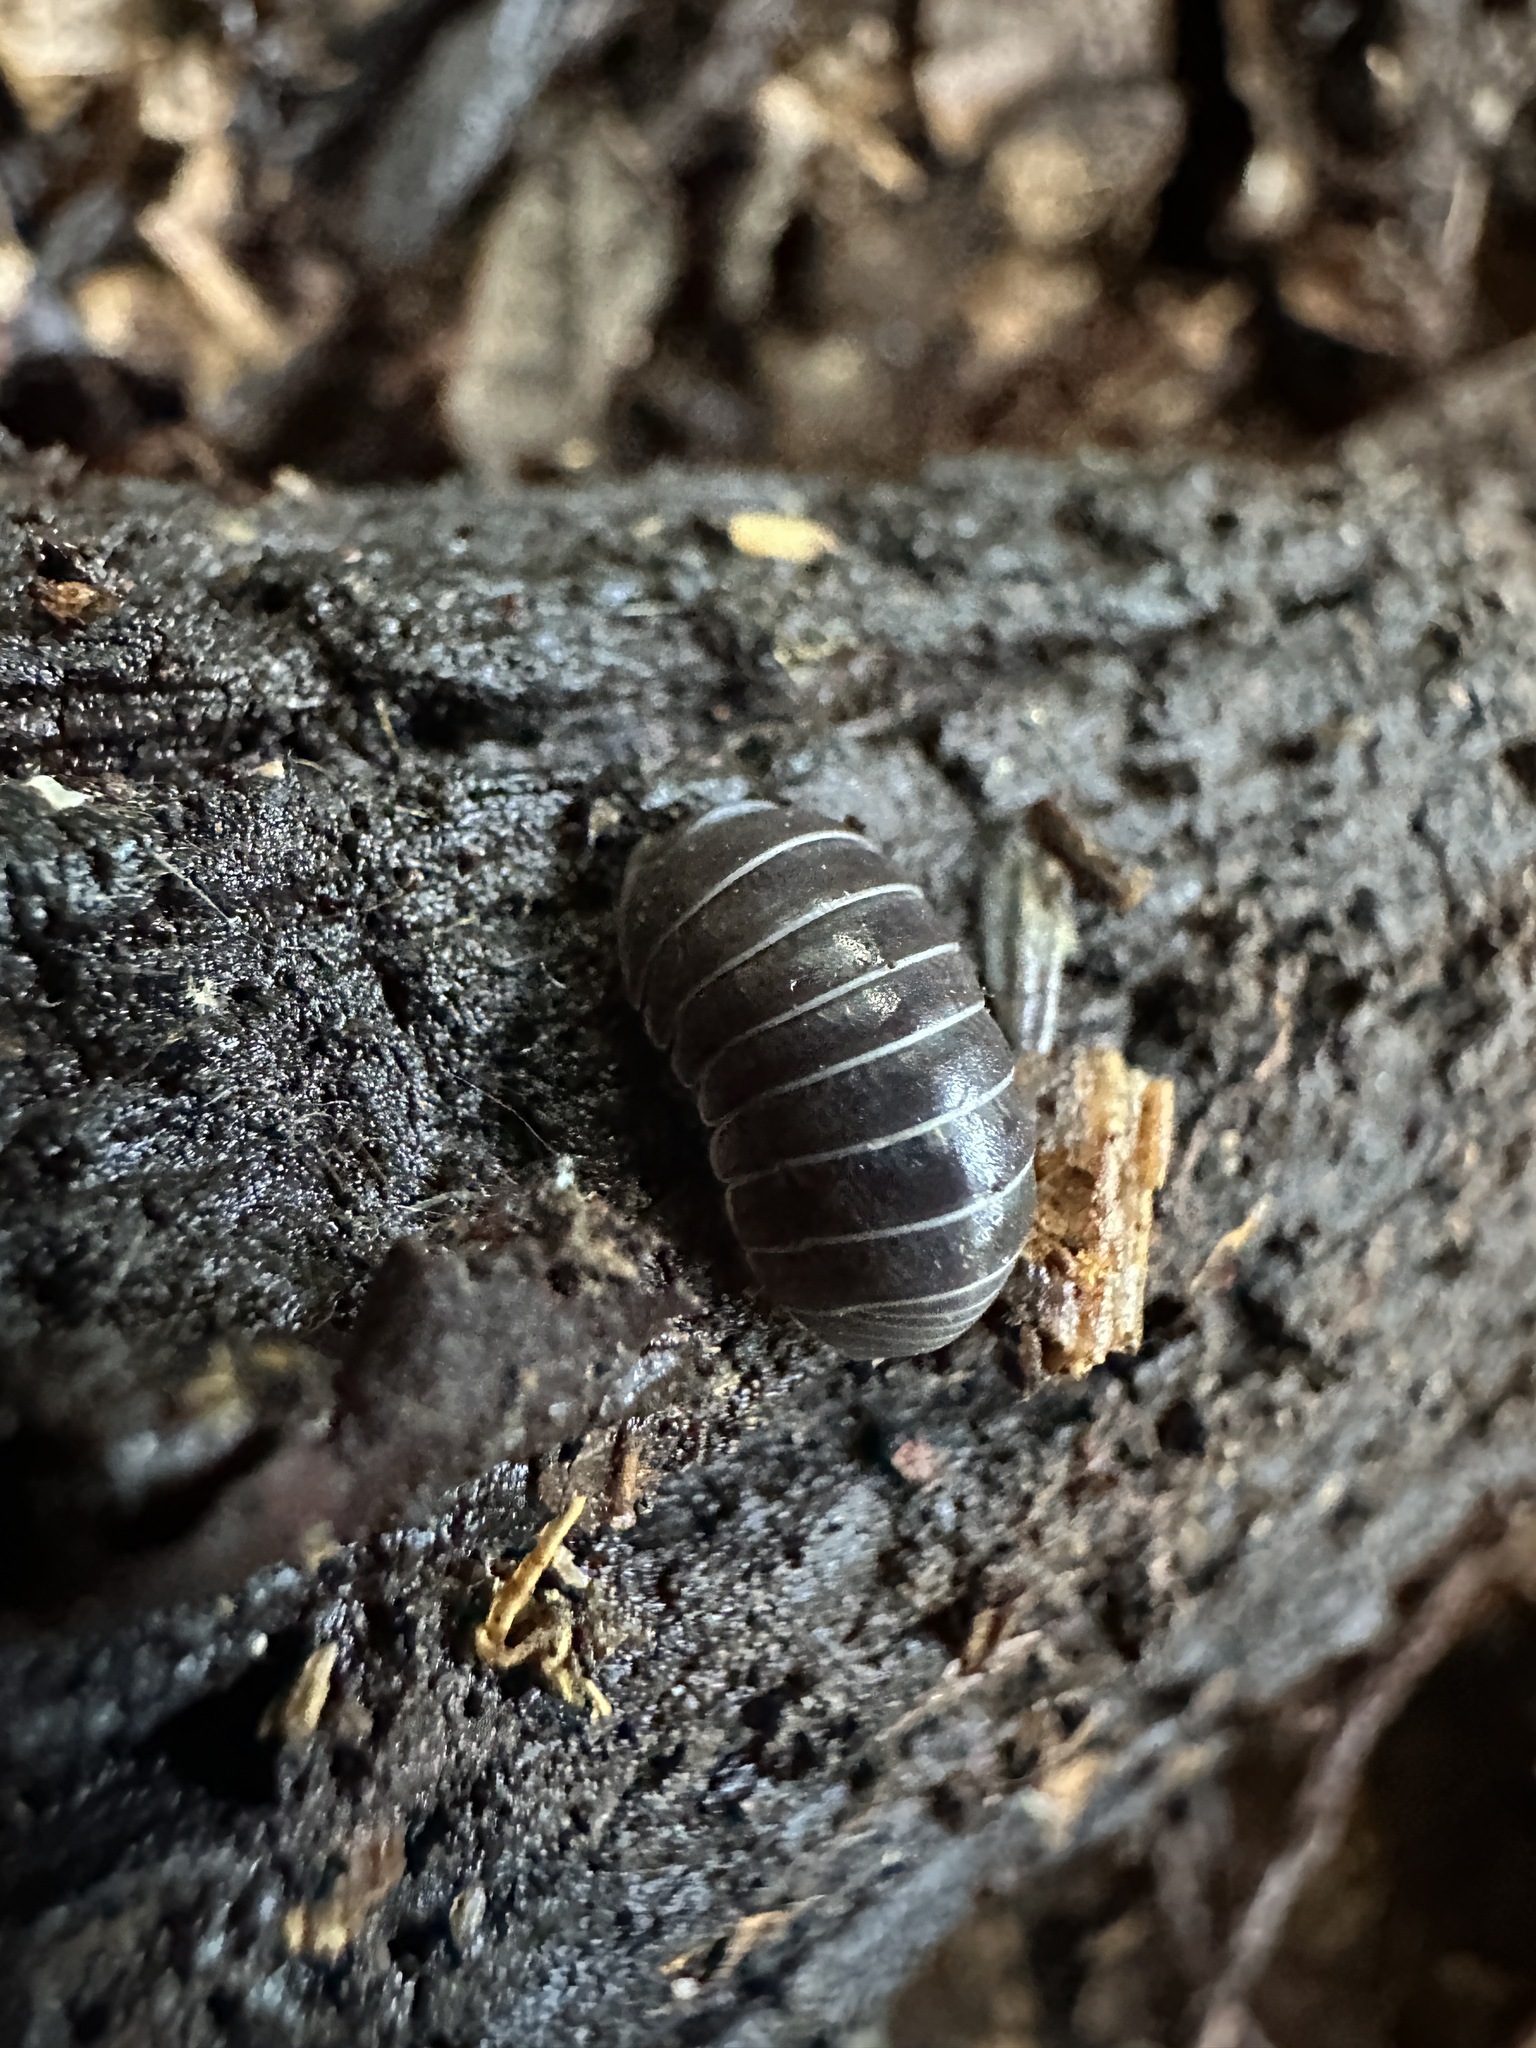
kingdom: Animalia
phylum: Arthropoda
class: Malacostraca
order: Isopoda
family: Armadillidiidae
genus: Armadillidium
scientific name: Armadillidium vulgare
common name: Common pill woodlouse
